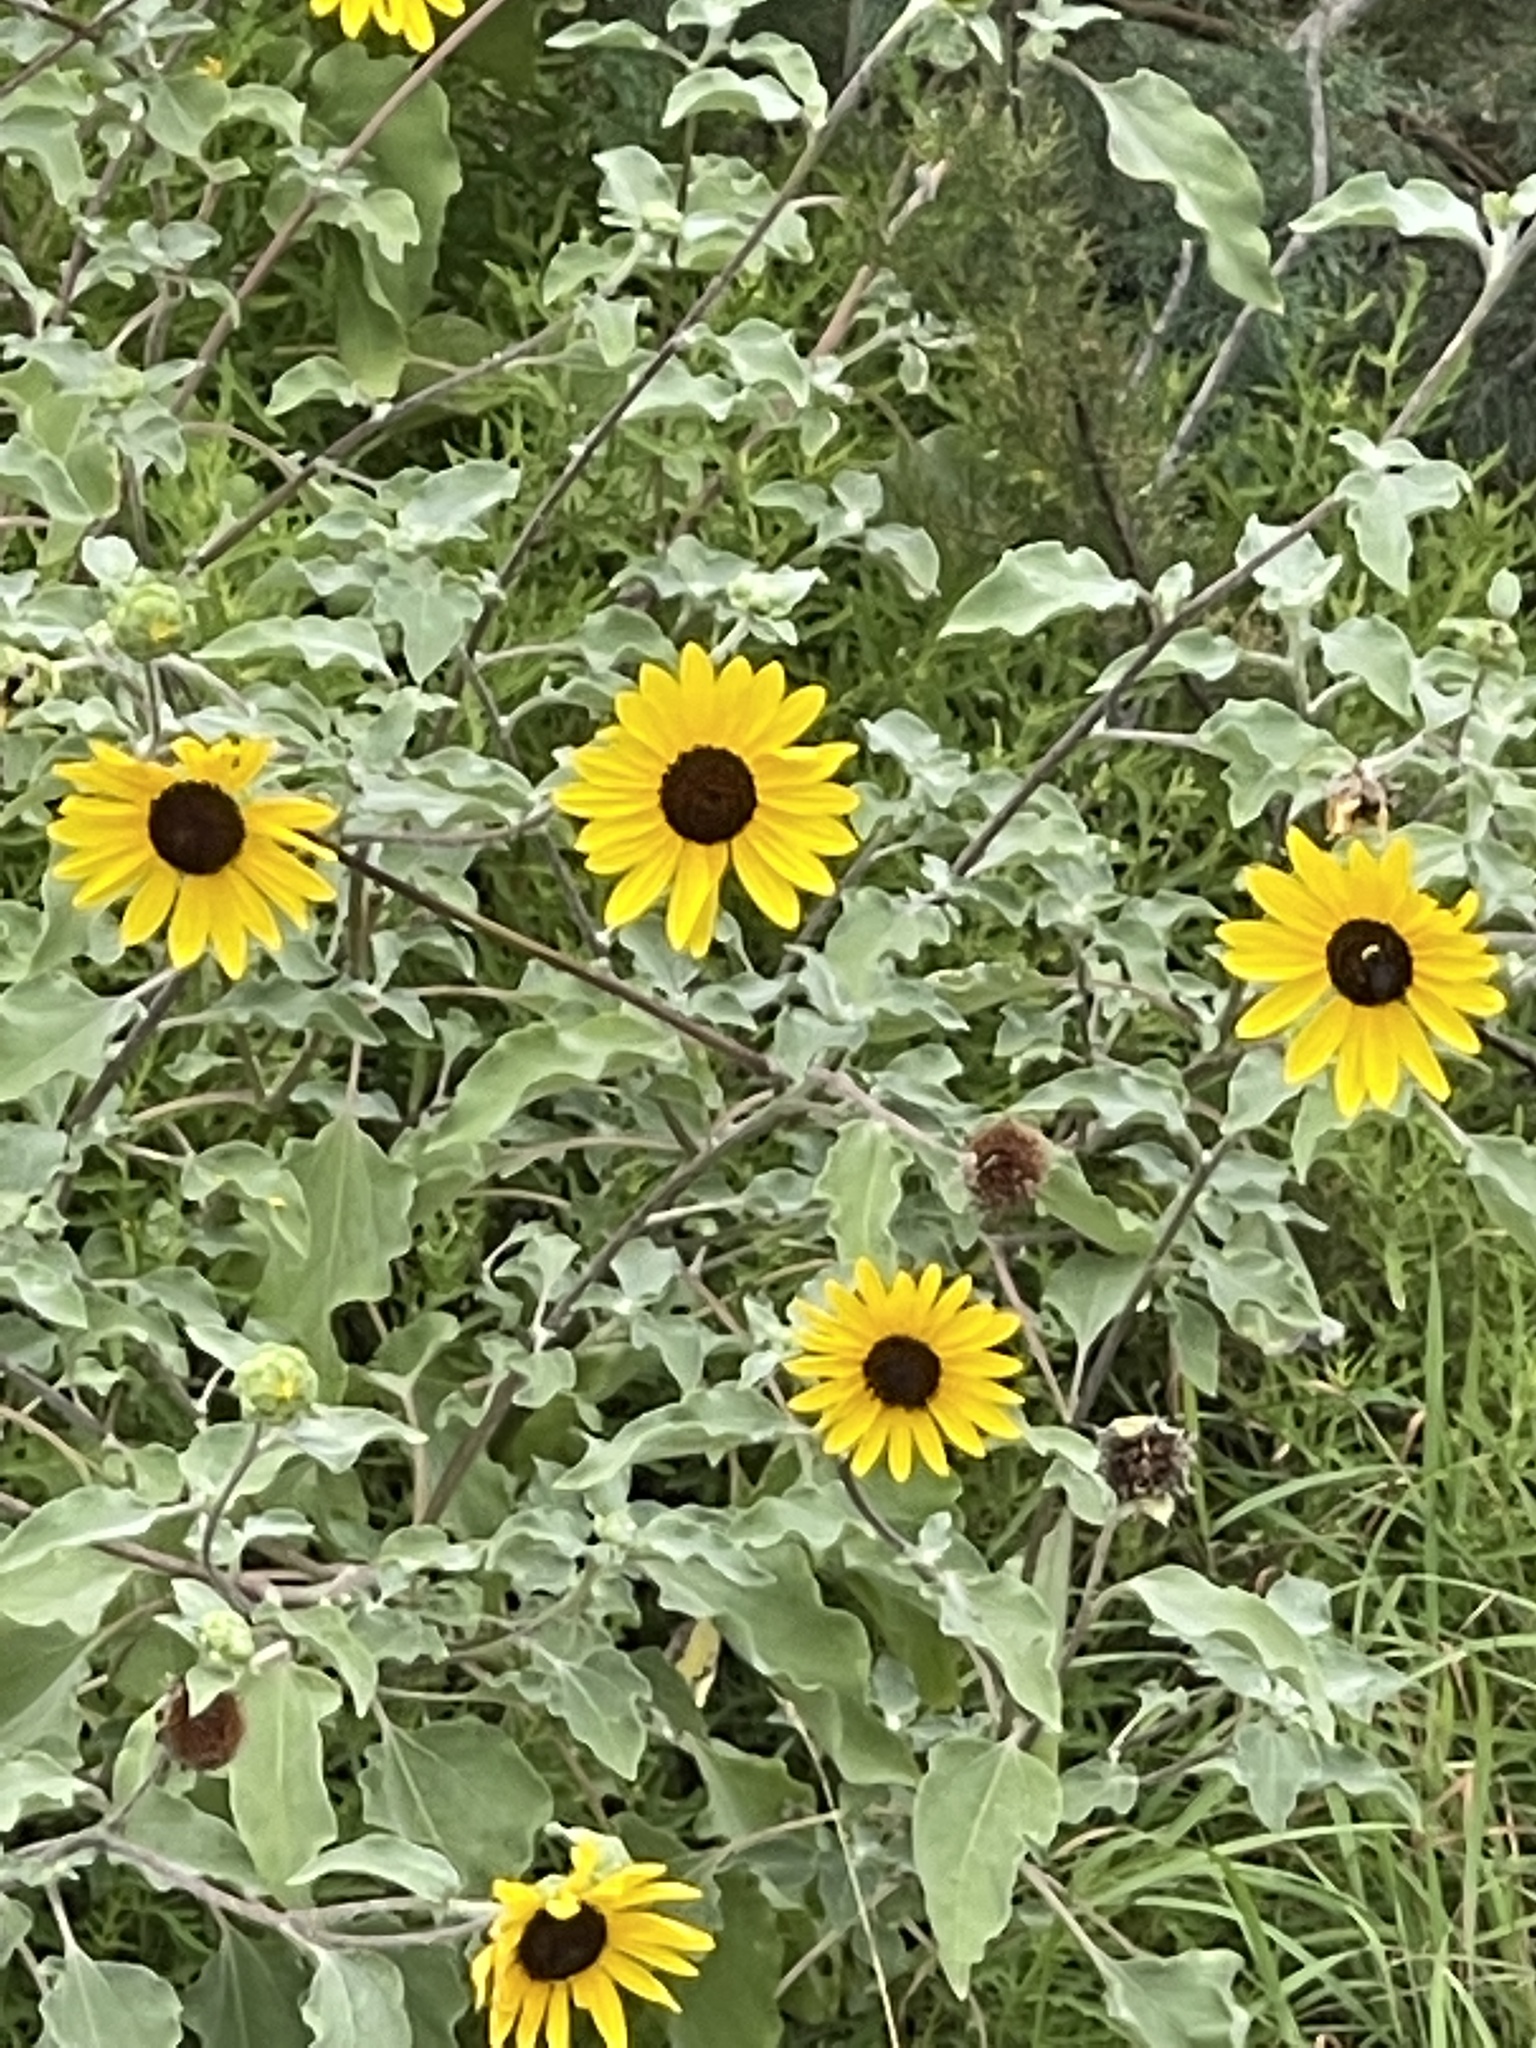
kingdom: Plantae
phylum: Tracheophyta
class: Magnoliopsida
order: Asterales
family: Asteraceae
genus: Helianthus
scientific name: Helianthus argophyllus
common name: Silverleaf sunflower
